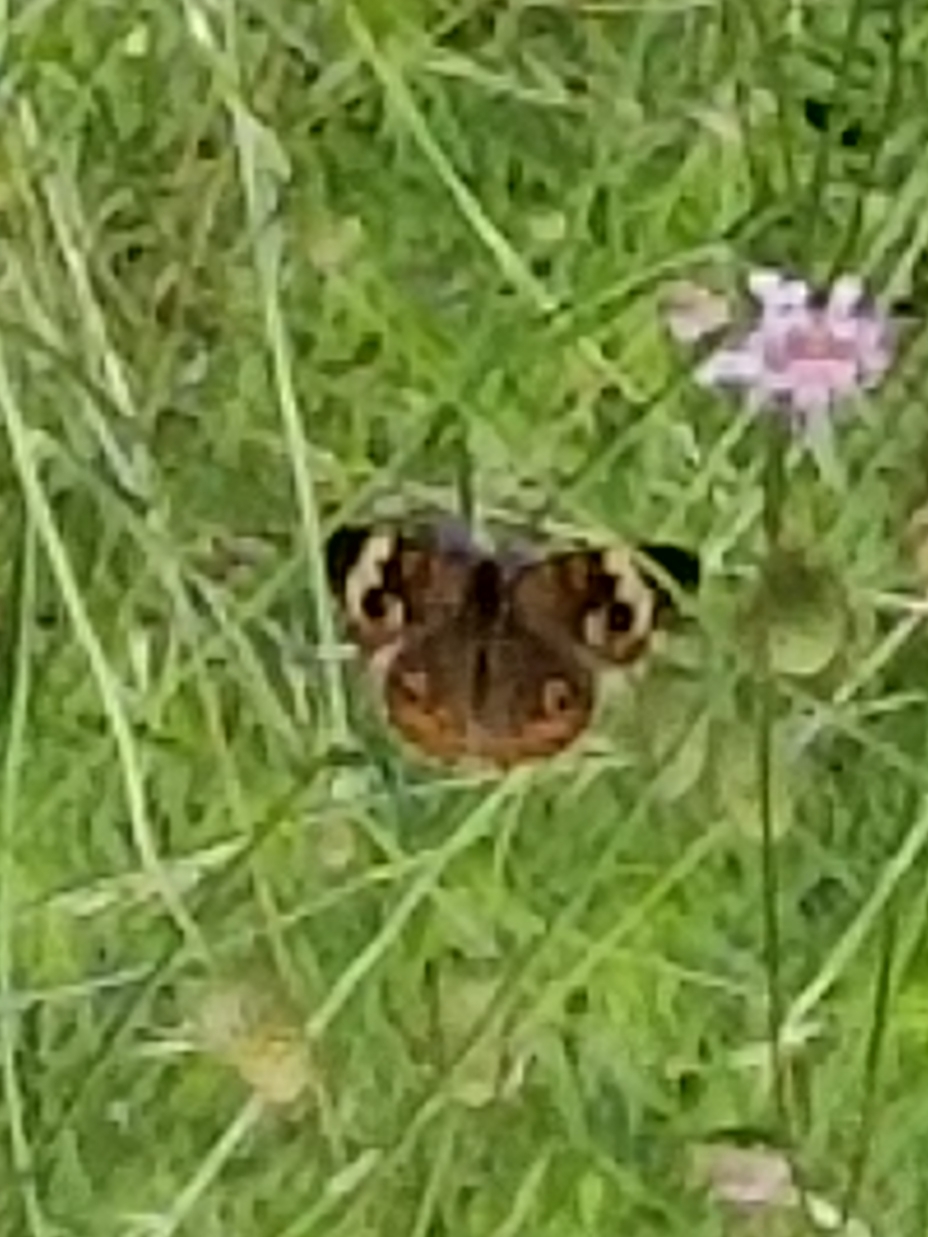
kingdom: Animalia
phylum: Arthropoda
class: Insecta
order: Lepidoptera
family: Nymphalidae
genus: Junonia
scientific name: Junonia coenia
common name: Common buckeye
